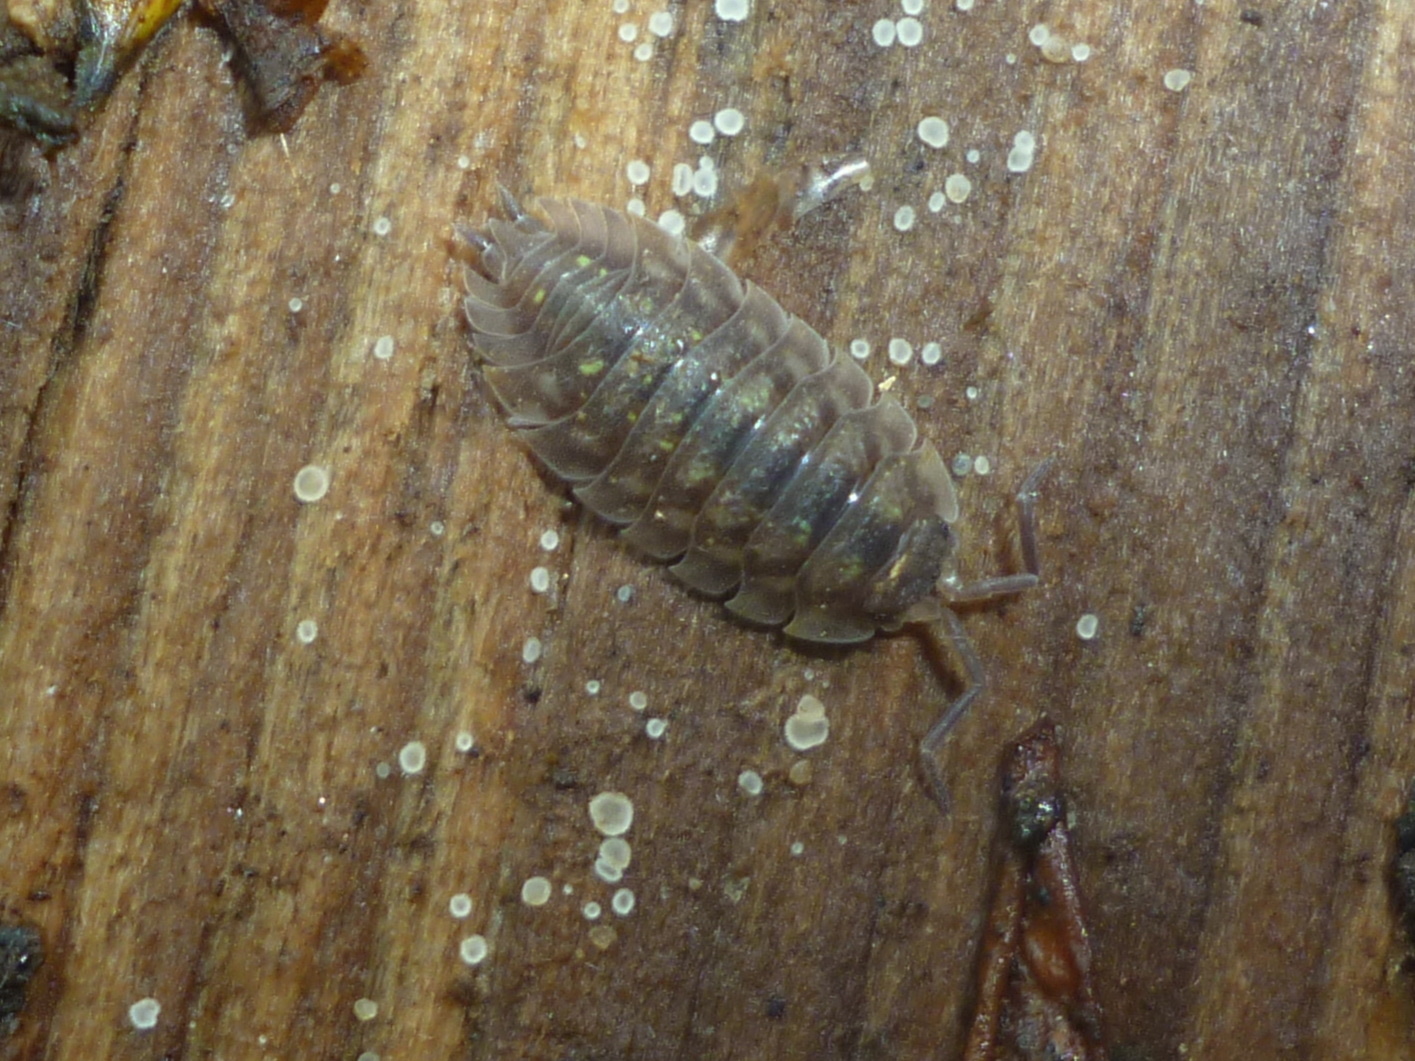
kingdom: Animalia
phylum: Arthropoda
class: Malacostraca
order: Isopoda
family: Oniscidae
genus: Oniscus
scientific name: Oniscus asellus
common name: Common shiny woodlouse
